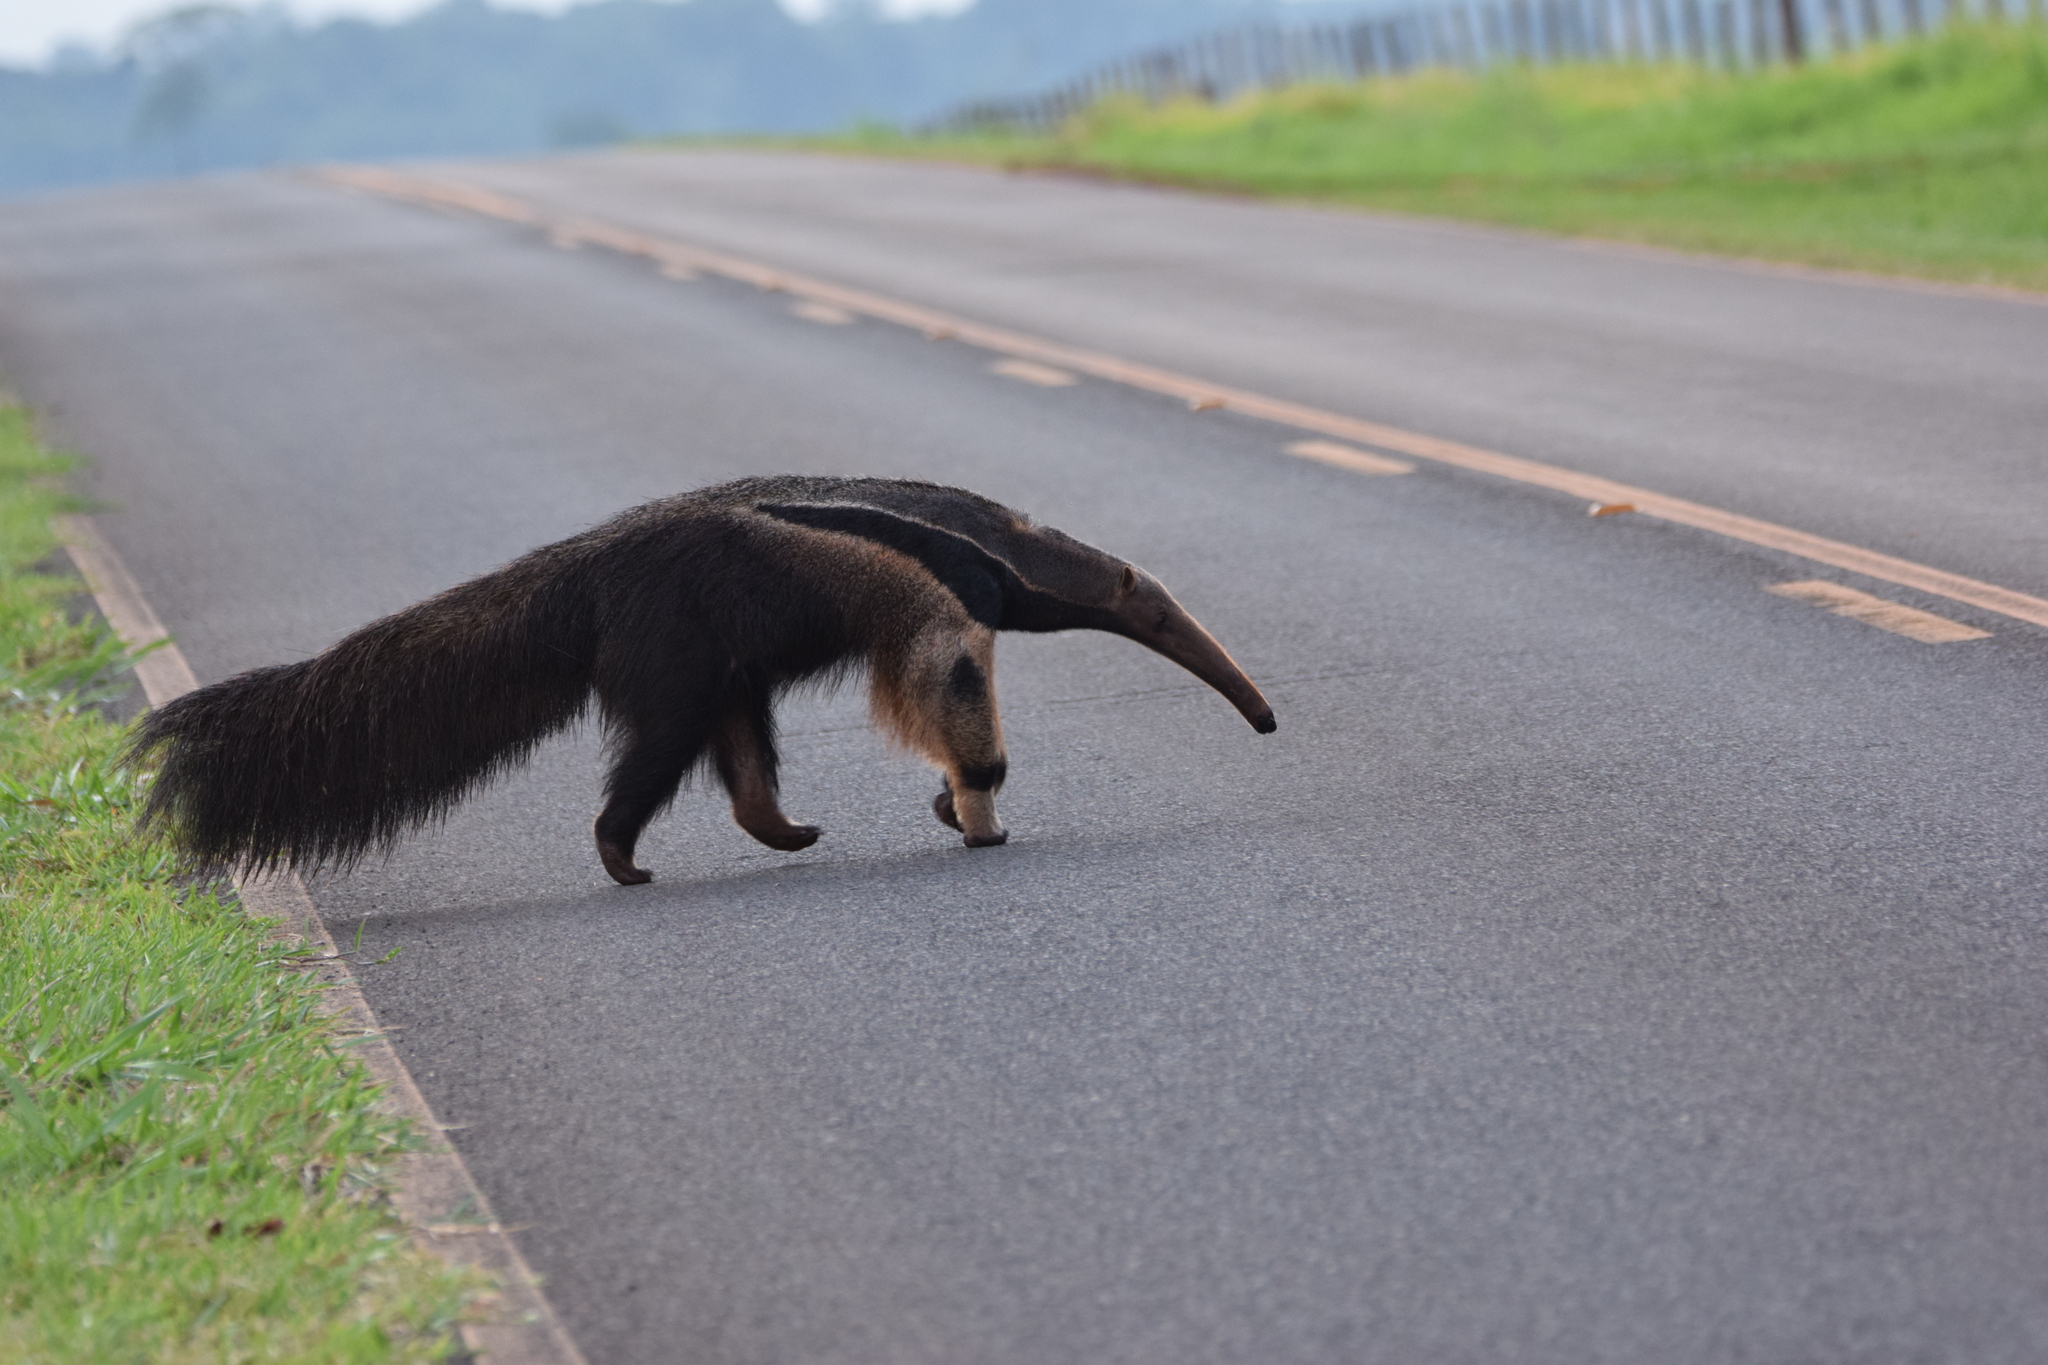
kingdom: Animalia
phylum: Chordata
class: Mammalia
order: Pilosa
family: Myrmecophagidae
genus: Myrmecophaga
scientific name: Myrmecophaga tridactyla
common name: Giant anteater
